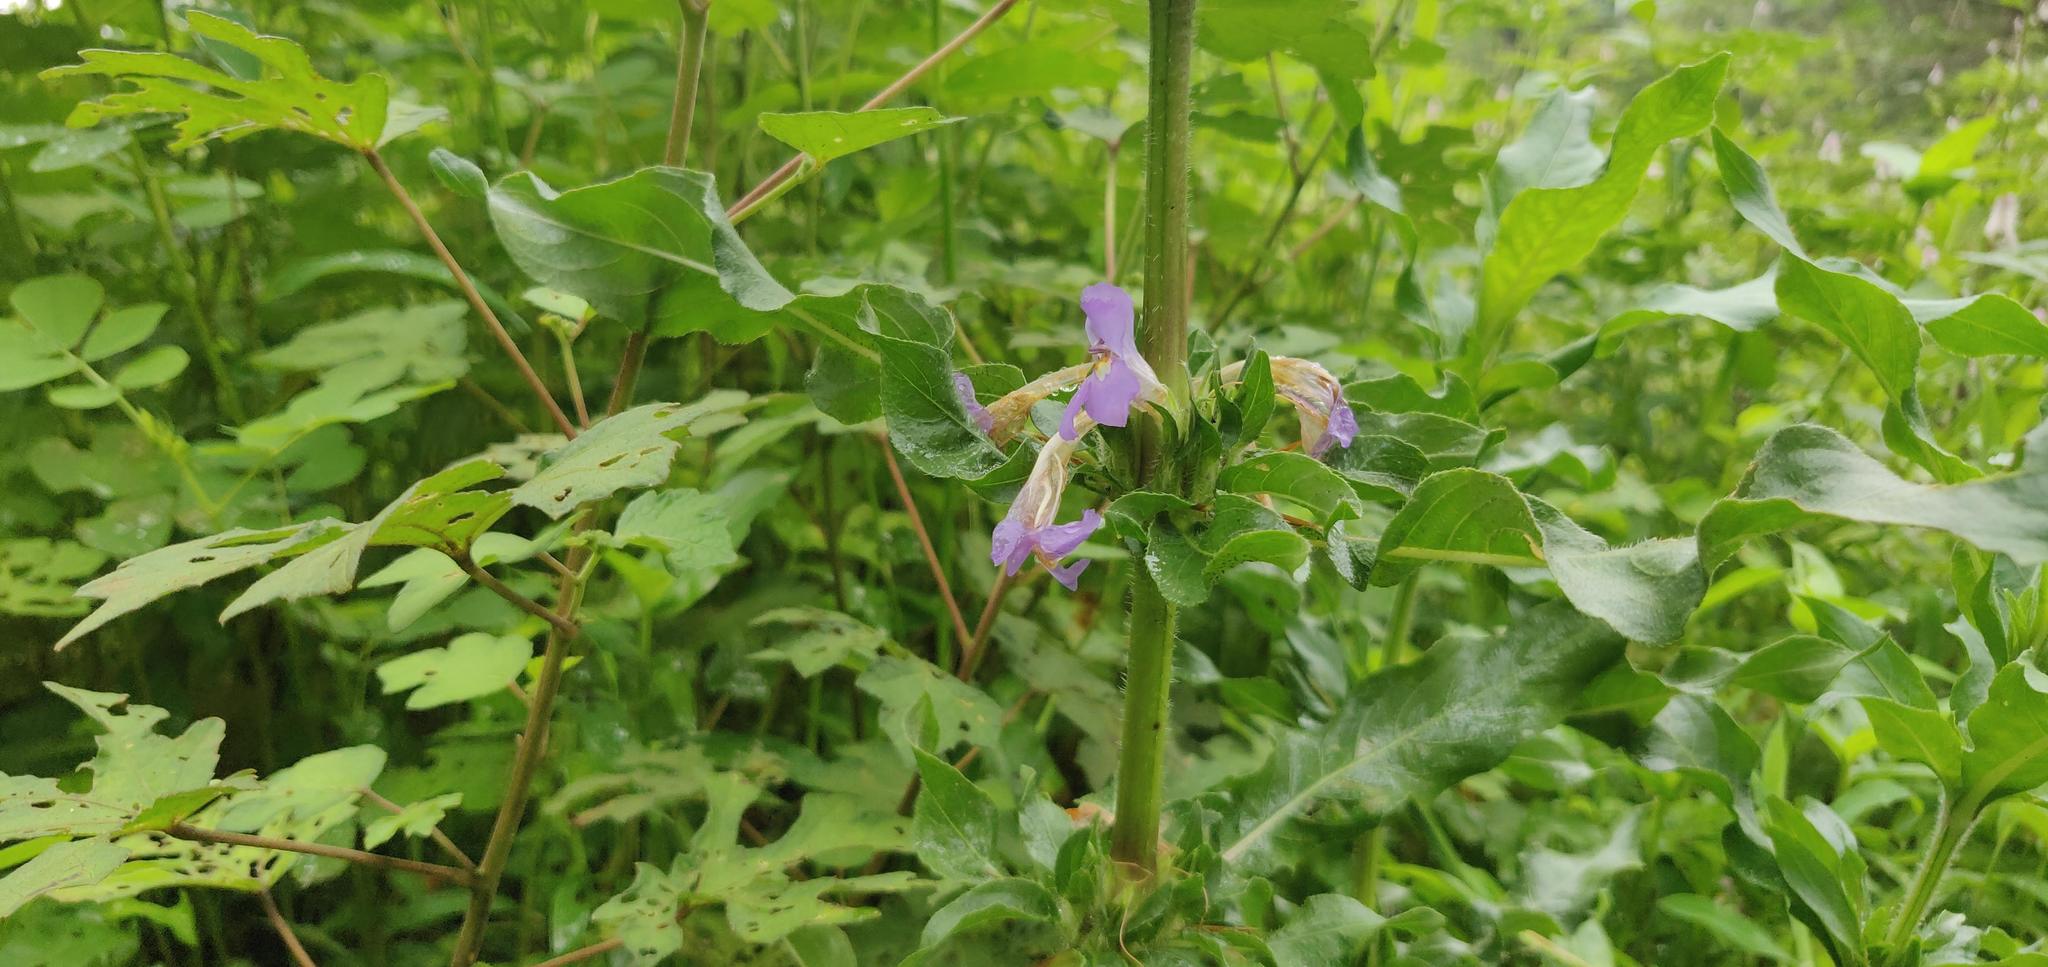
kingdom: Plantae
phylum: Tracheophyta
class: Magnoliopsida
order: Lamiales
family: Acanthaceae
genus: Hygrophila
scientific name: Hygrophila auriculata
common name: Hygrophila
